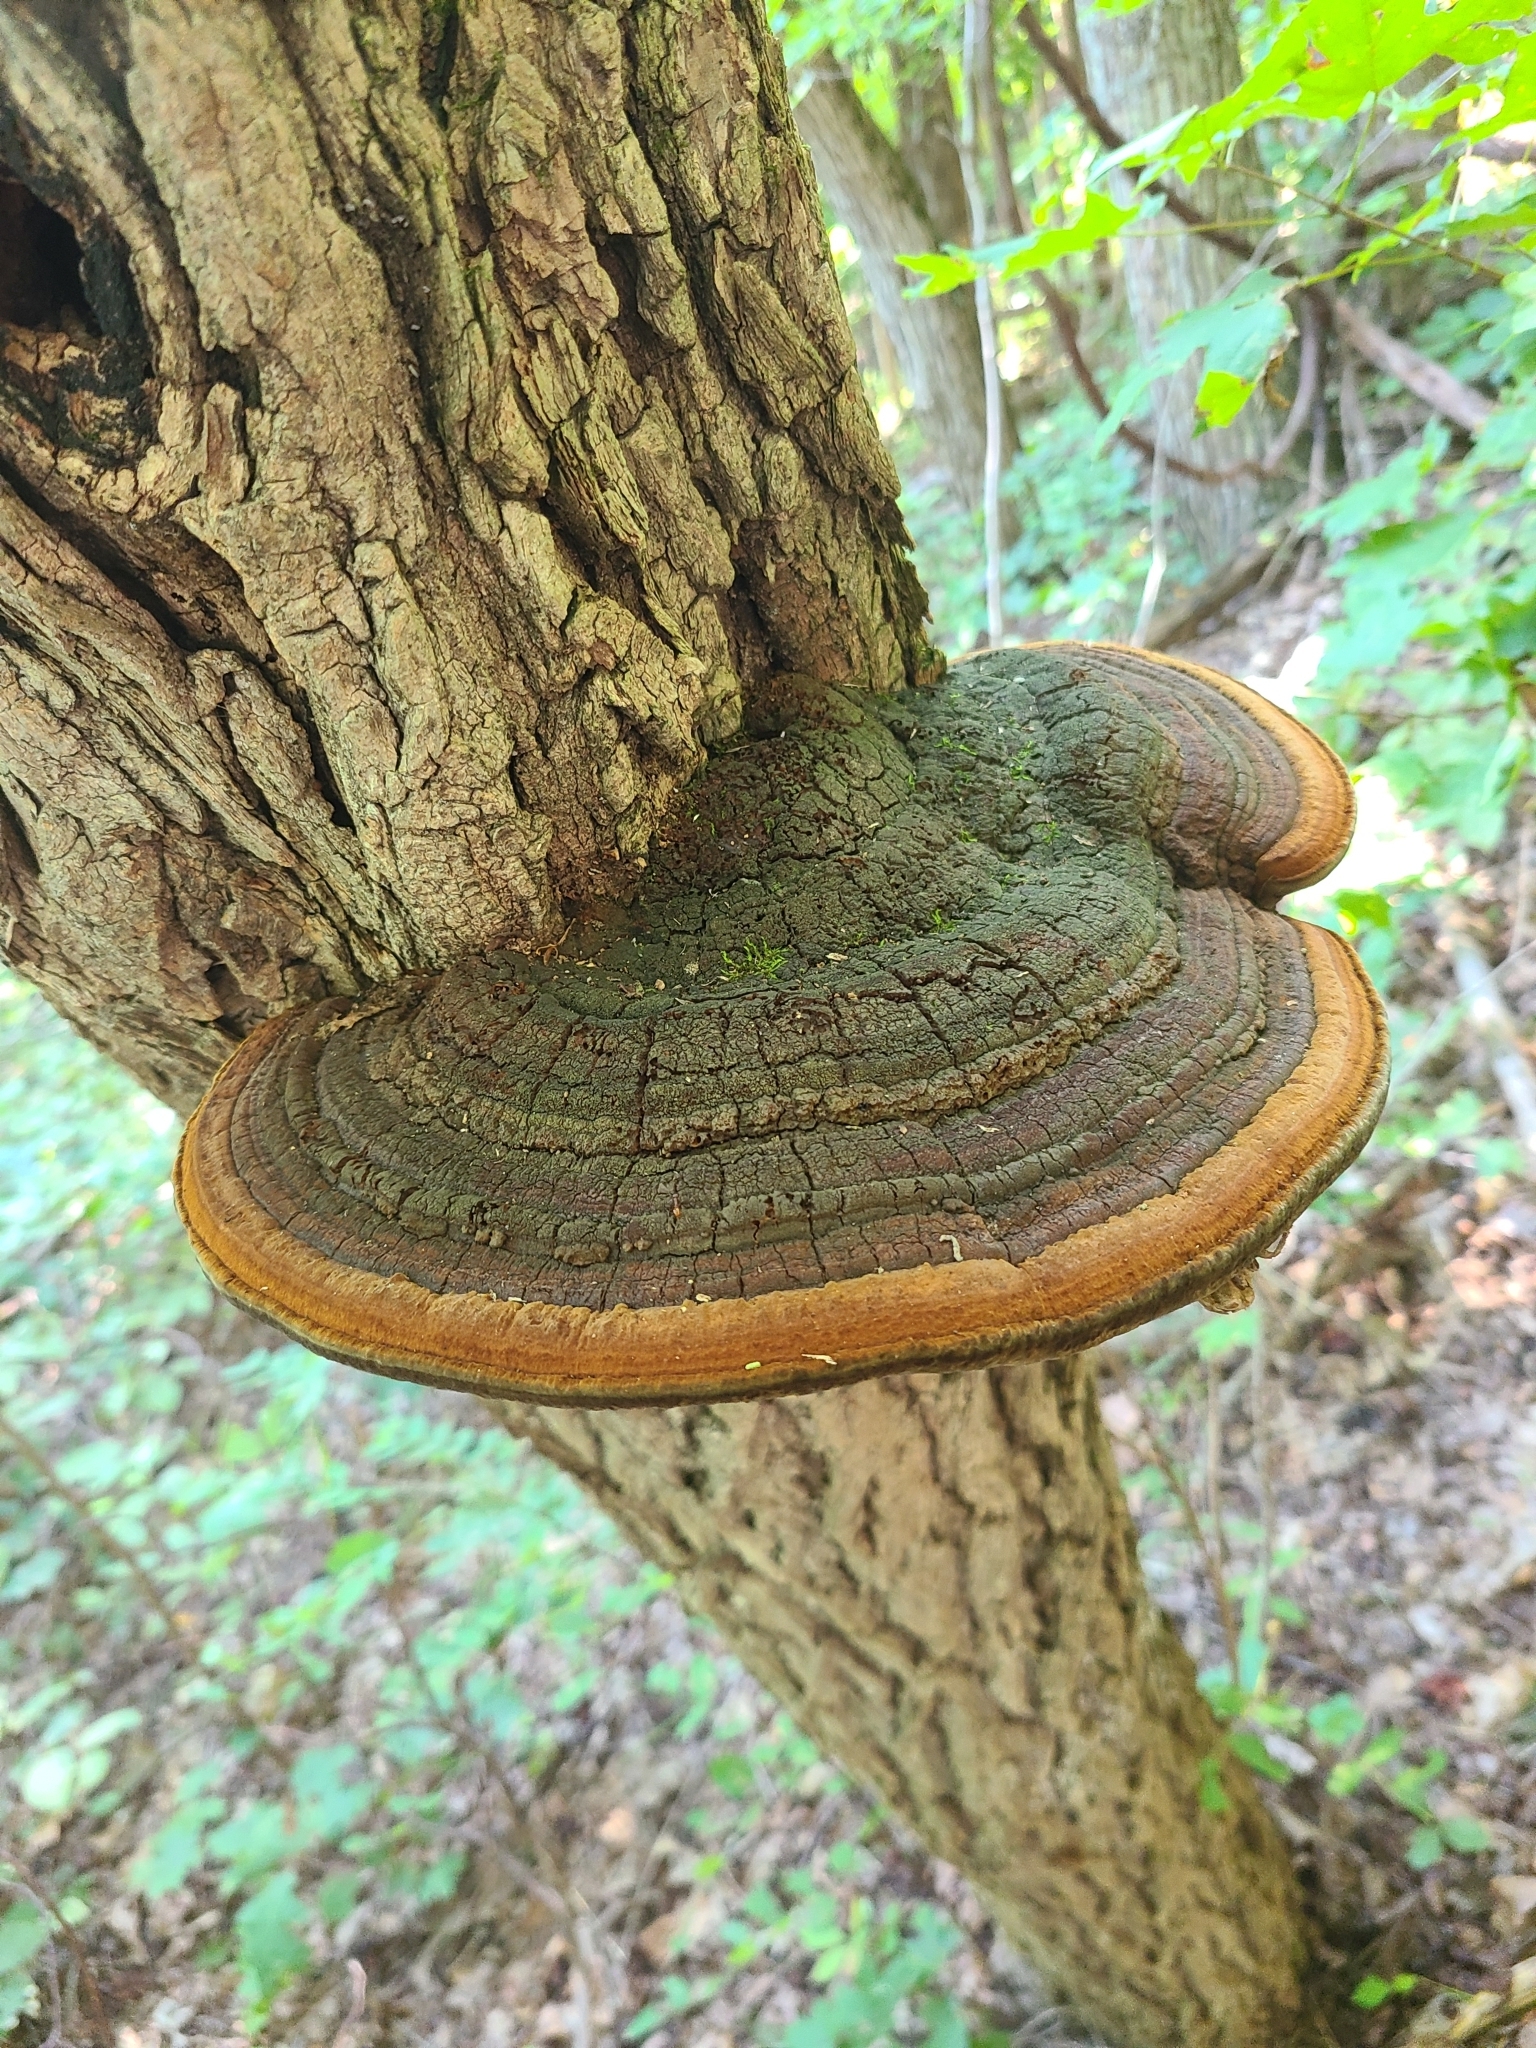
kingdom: Fungi
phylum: Basidiomycota
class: Agaricomycetes
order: Hymenochaetales
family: Hymenochaetaceae
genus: Phellinus
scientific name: Phellinus robiniae
